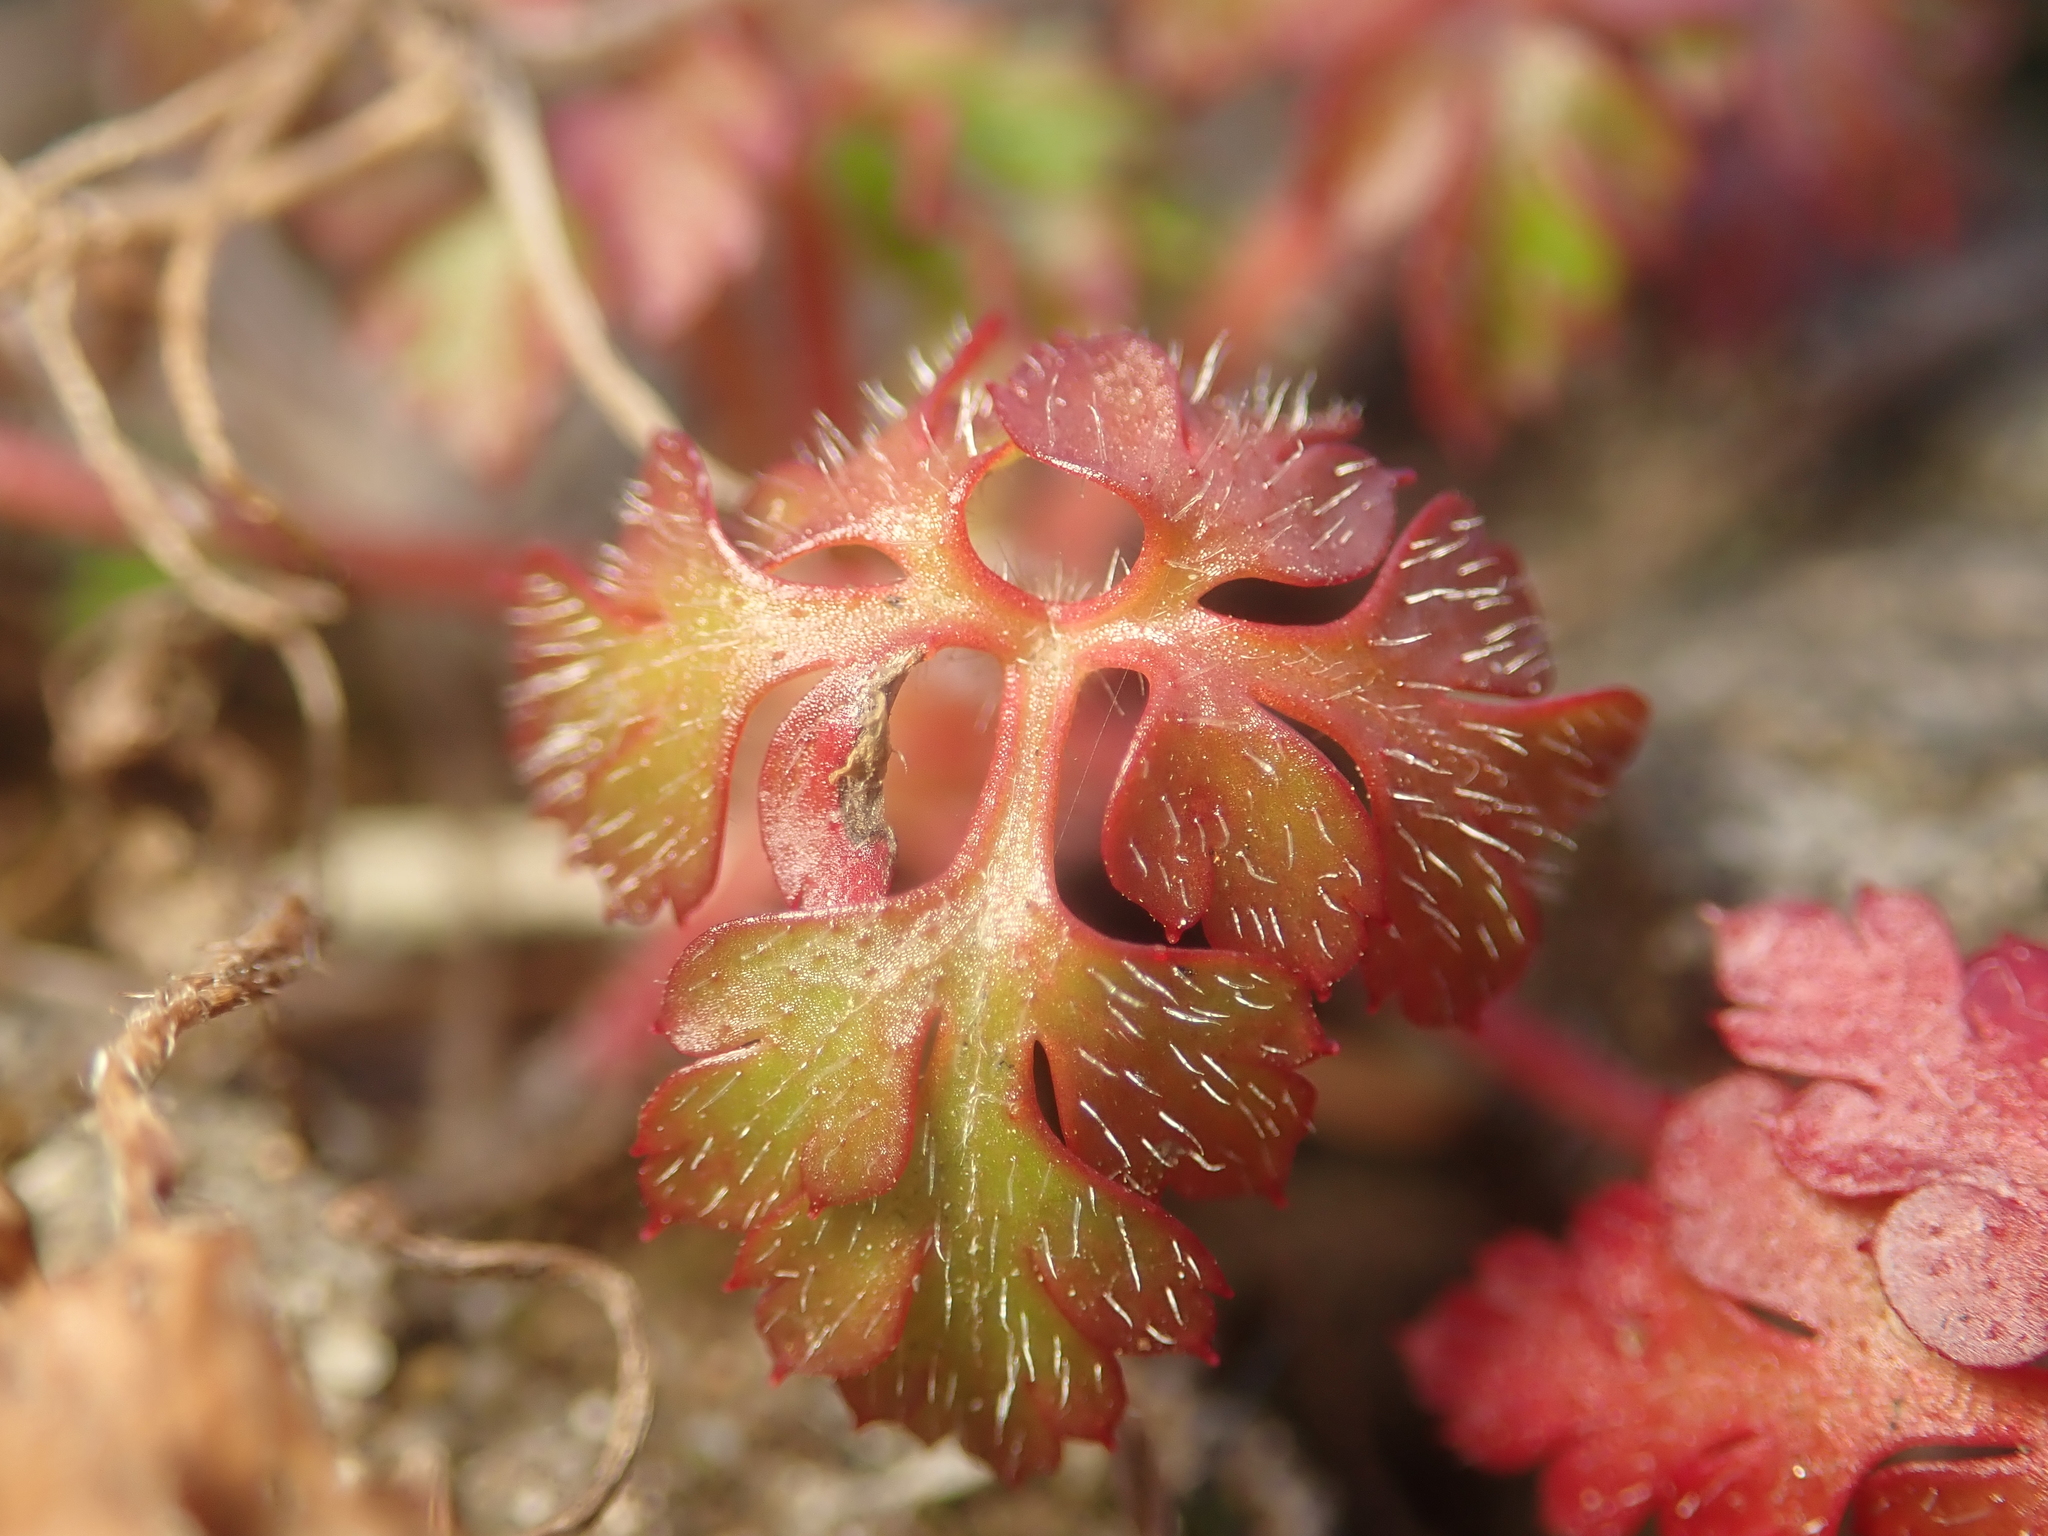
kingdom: Plantae
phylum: Tracheophyta
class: Magnoliopsida
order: Geraniales
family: Geraniaceae
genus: Geranium
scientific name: Geranium robertianum
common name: Herb-robert
